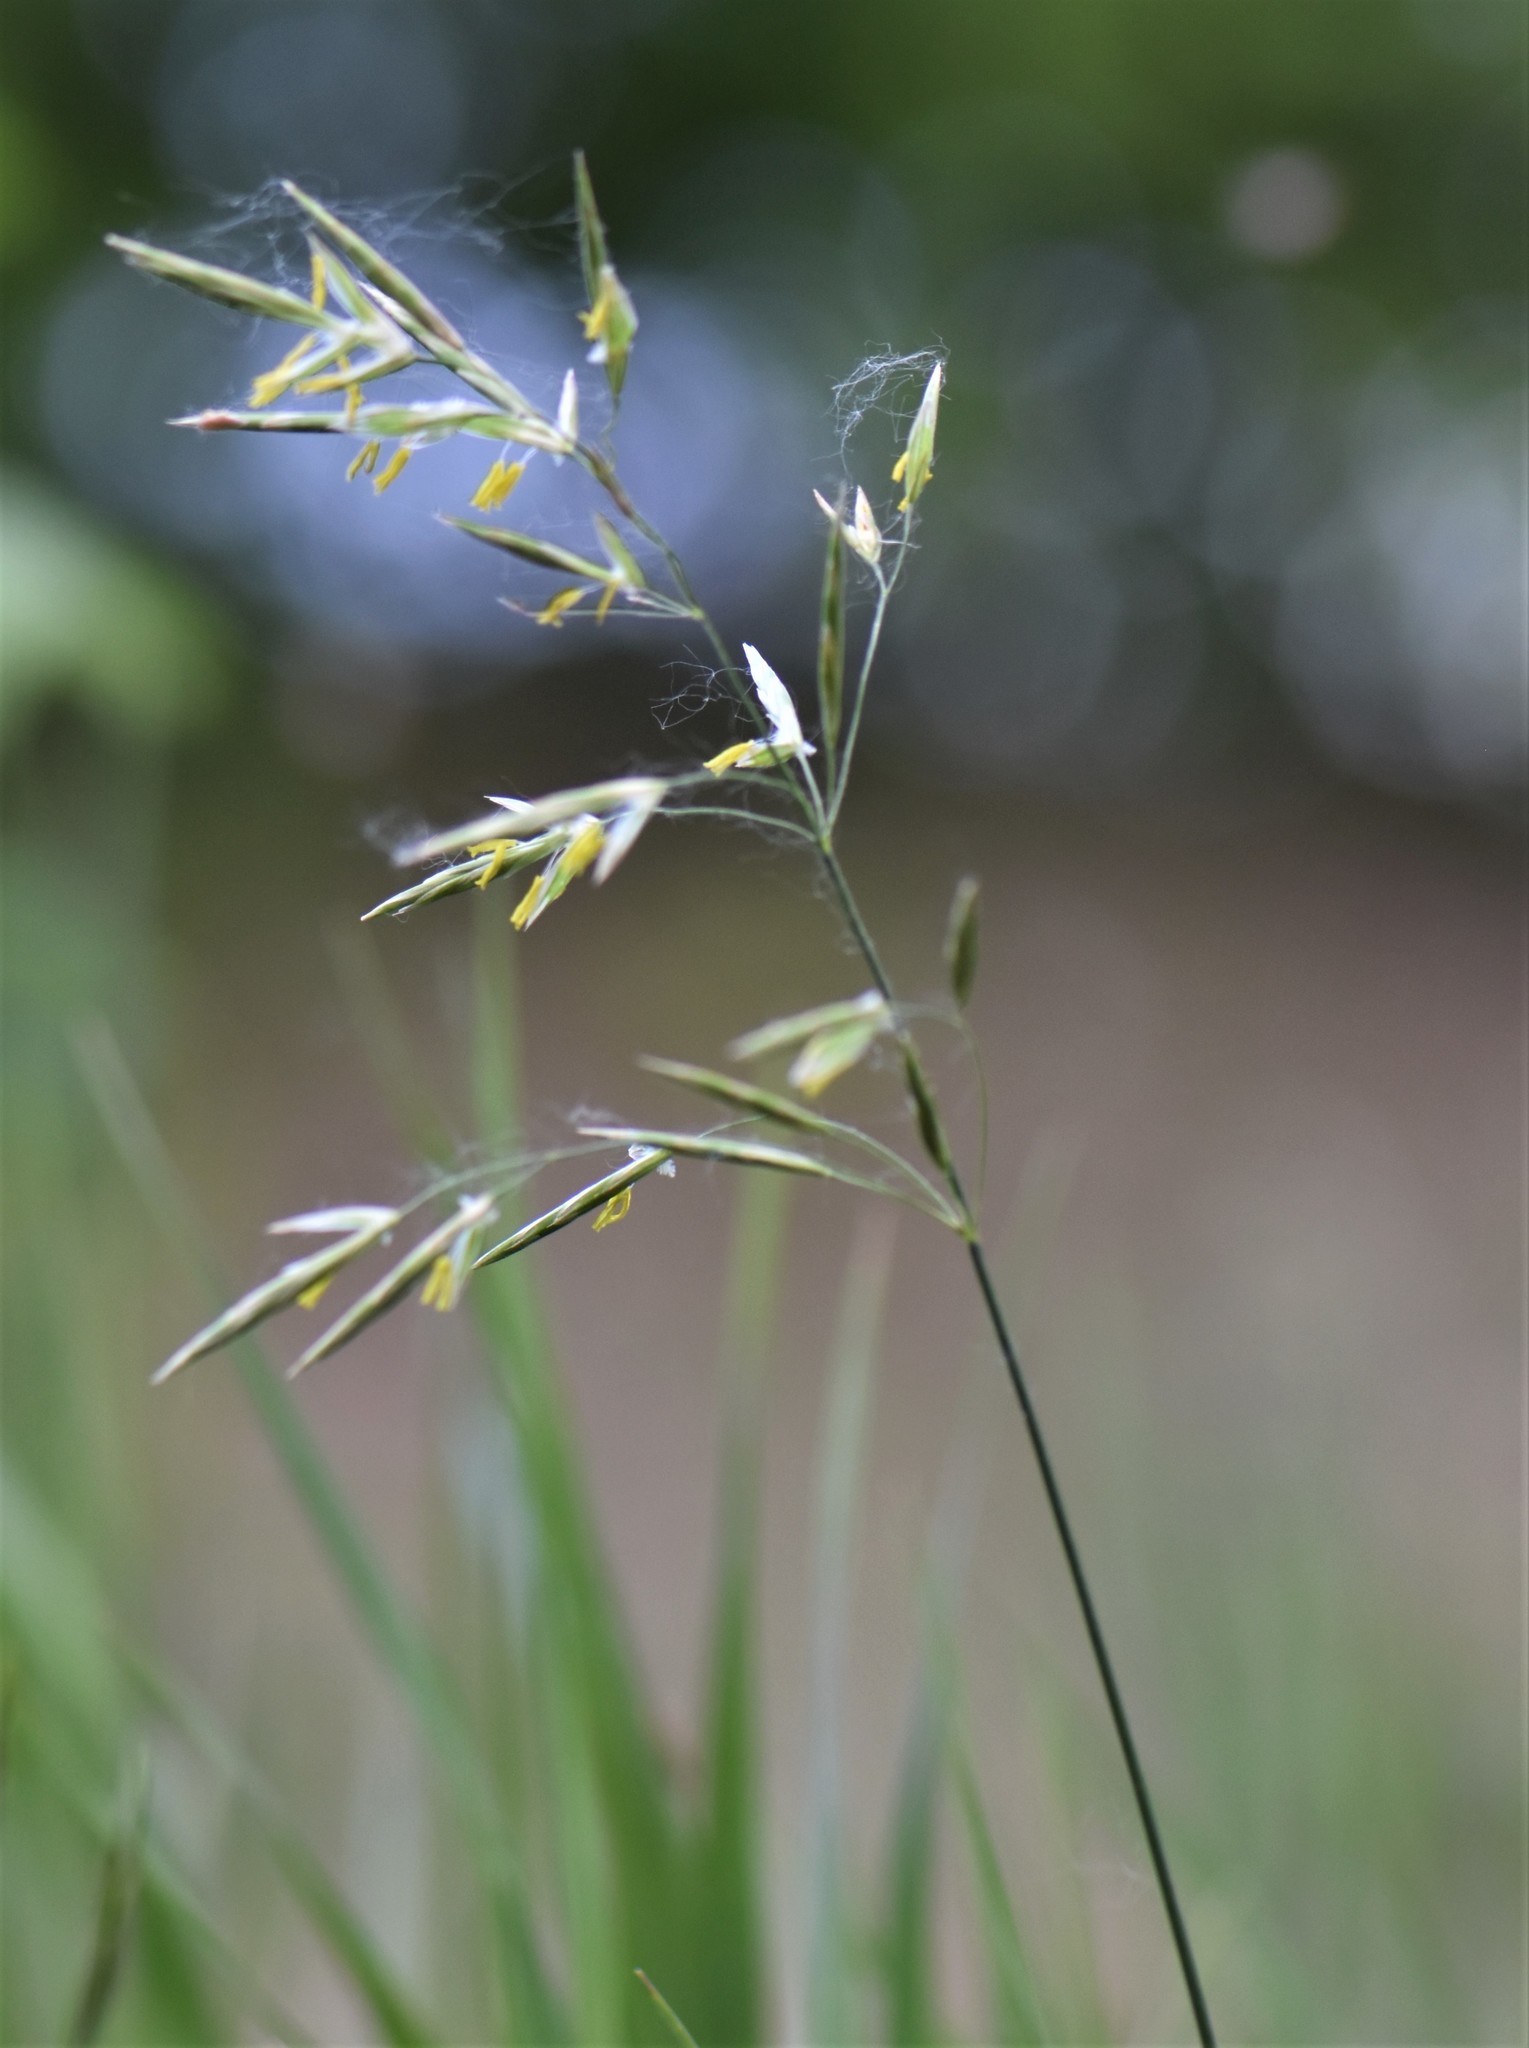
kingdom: Plantae
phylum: Tracheophyta
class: Liliopsida
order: Poales
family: Poaceae
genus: Bromus
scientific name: Bromus inermis
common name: Smooth brome
